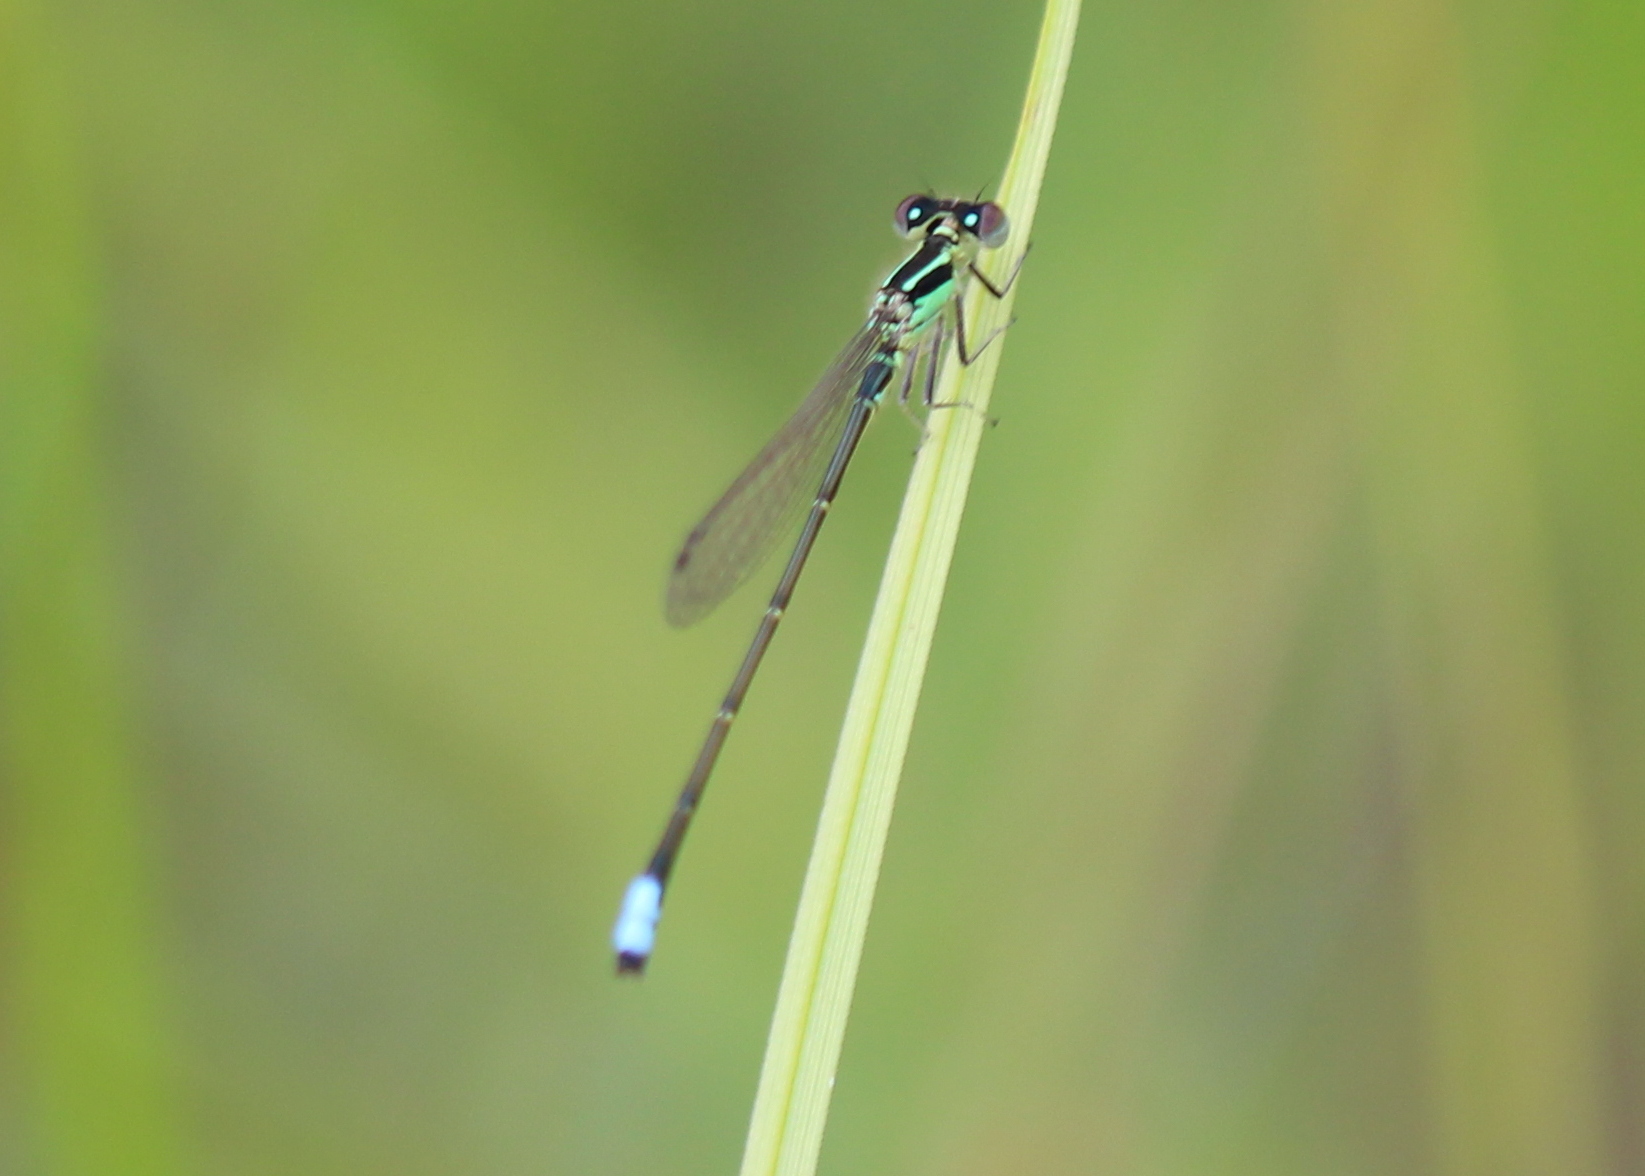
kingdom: Animalia
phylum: Arthropoda
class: Insecta
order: Odonata
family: Coenagrionidae
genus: Ischnura
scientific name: Ischnura verticalis
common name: Eastern forktail
